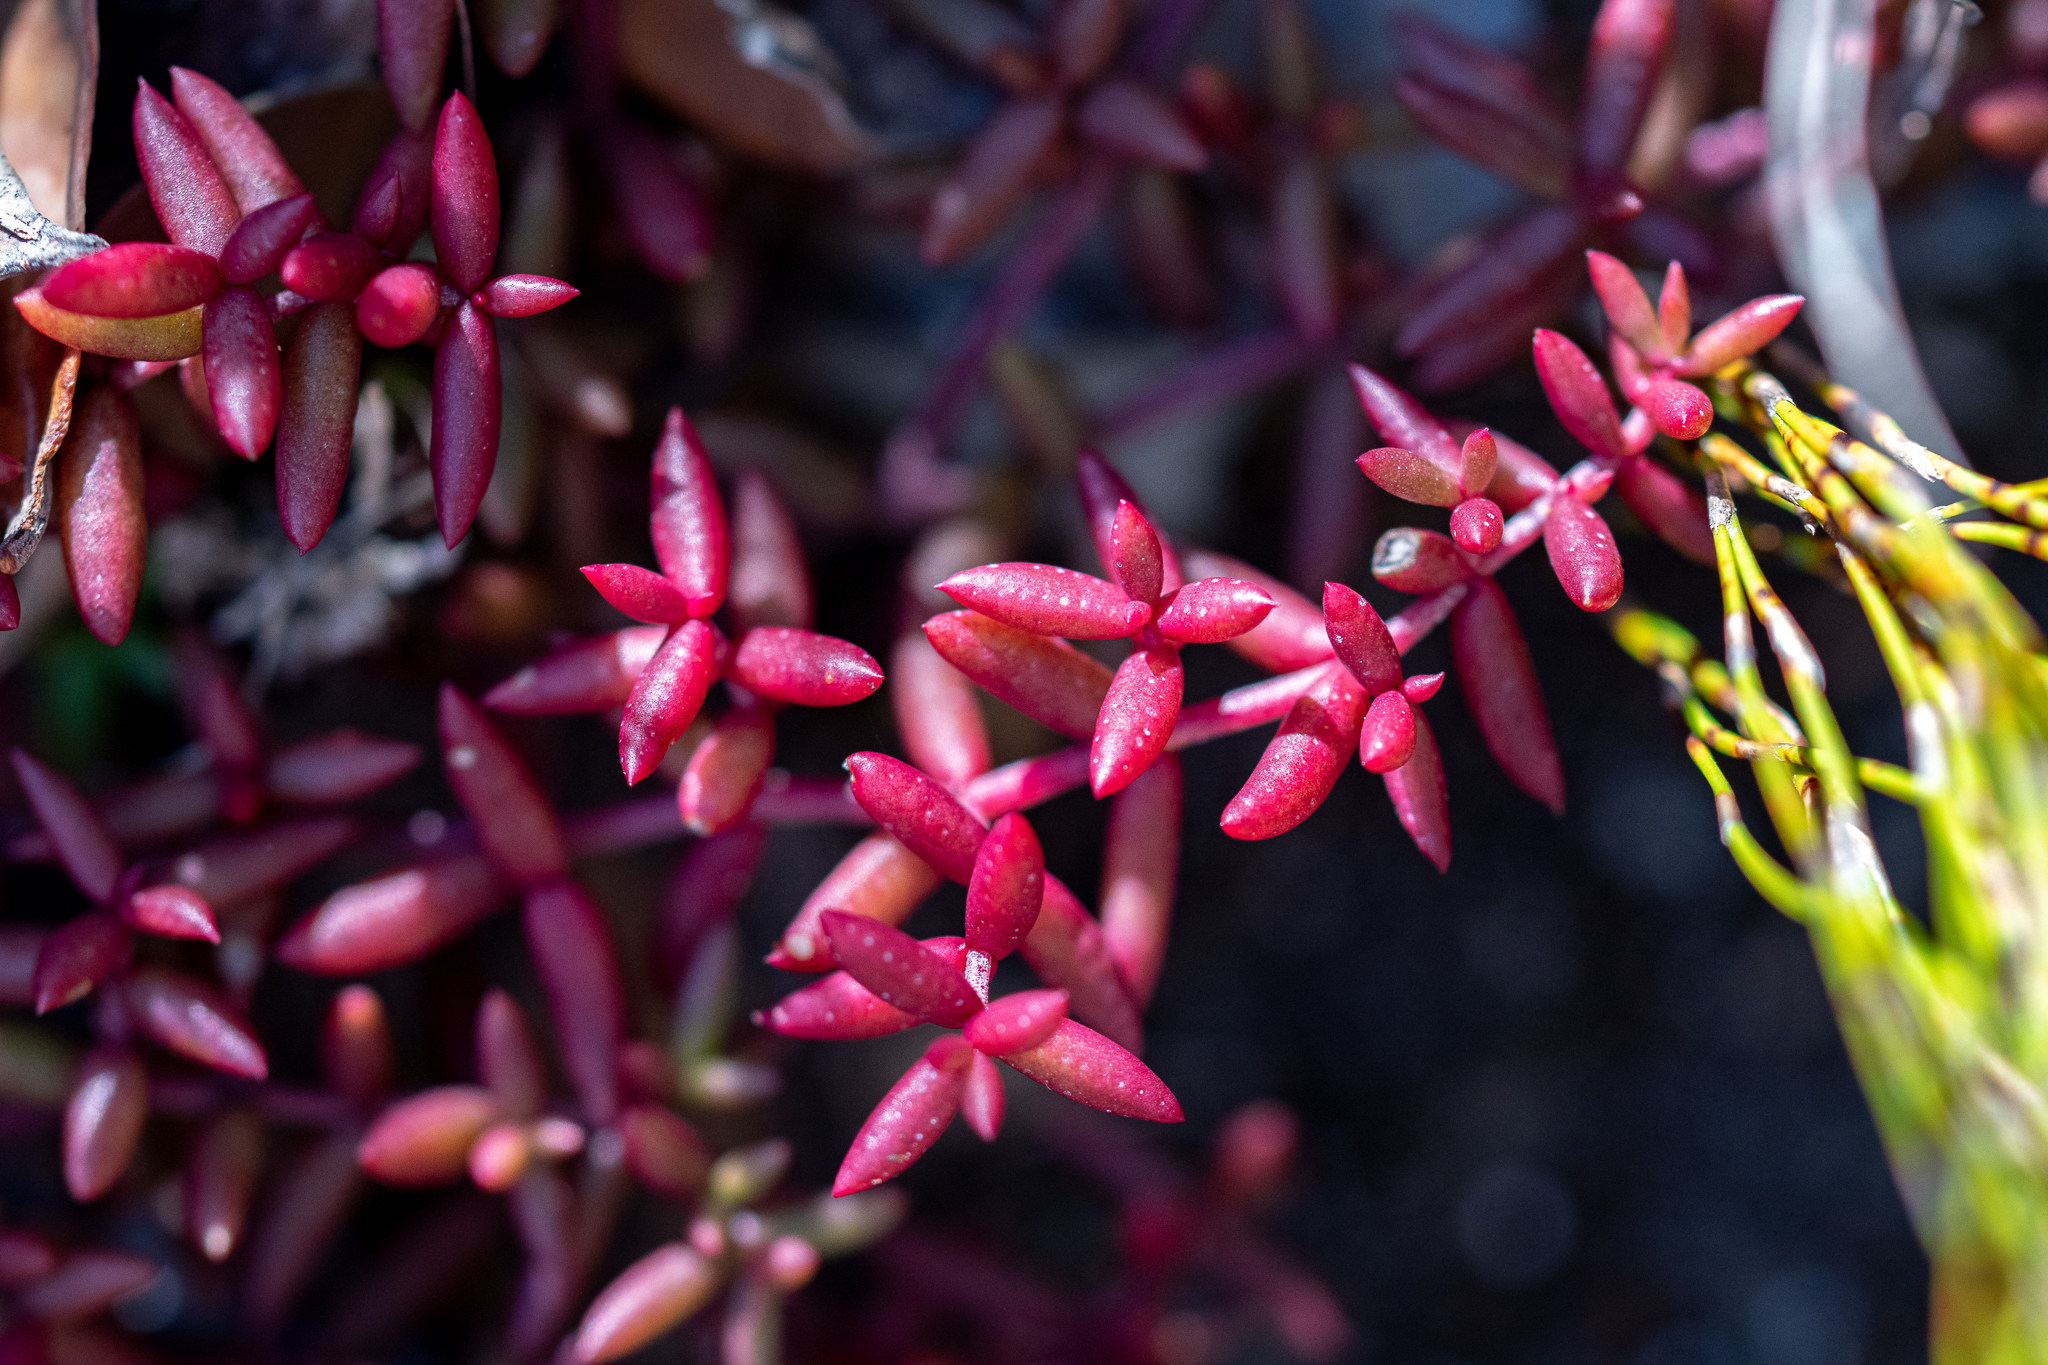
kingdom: Plantae
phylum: Tracheophyta
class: Magnoliopsida
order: Saxifragales
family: Crassulaceae
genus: Crassula
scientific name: Crassula expansa
